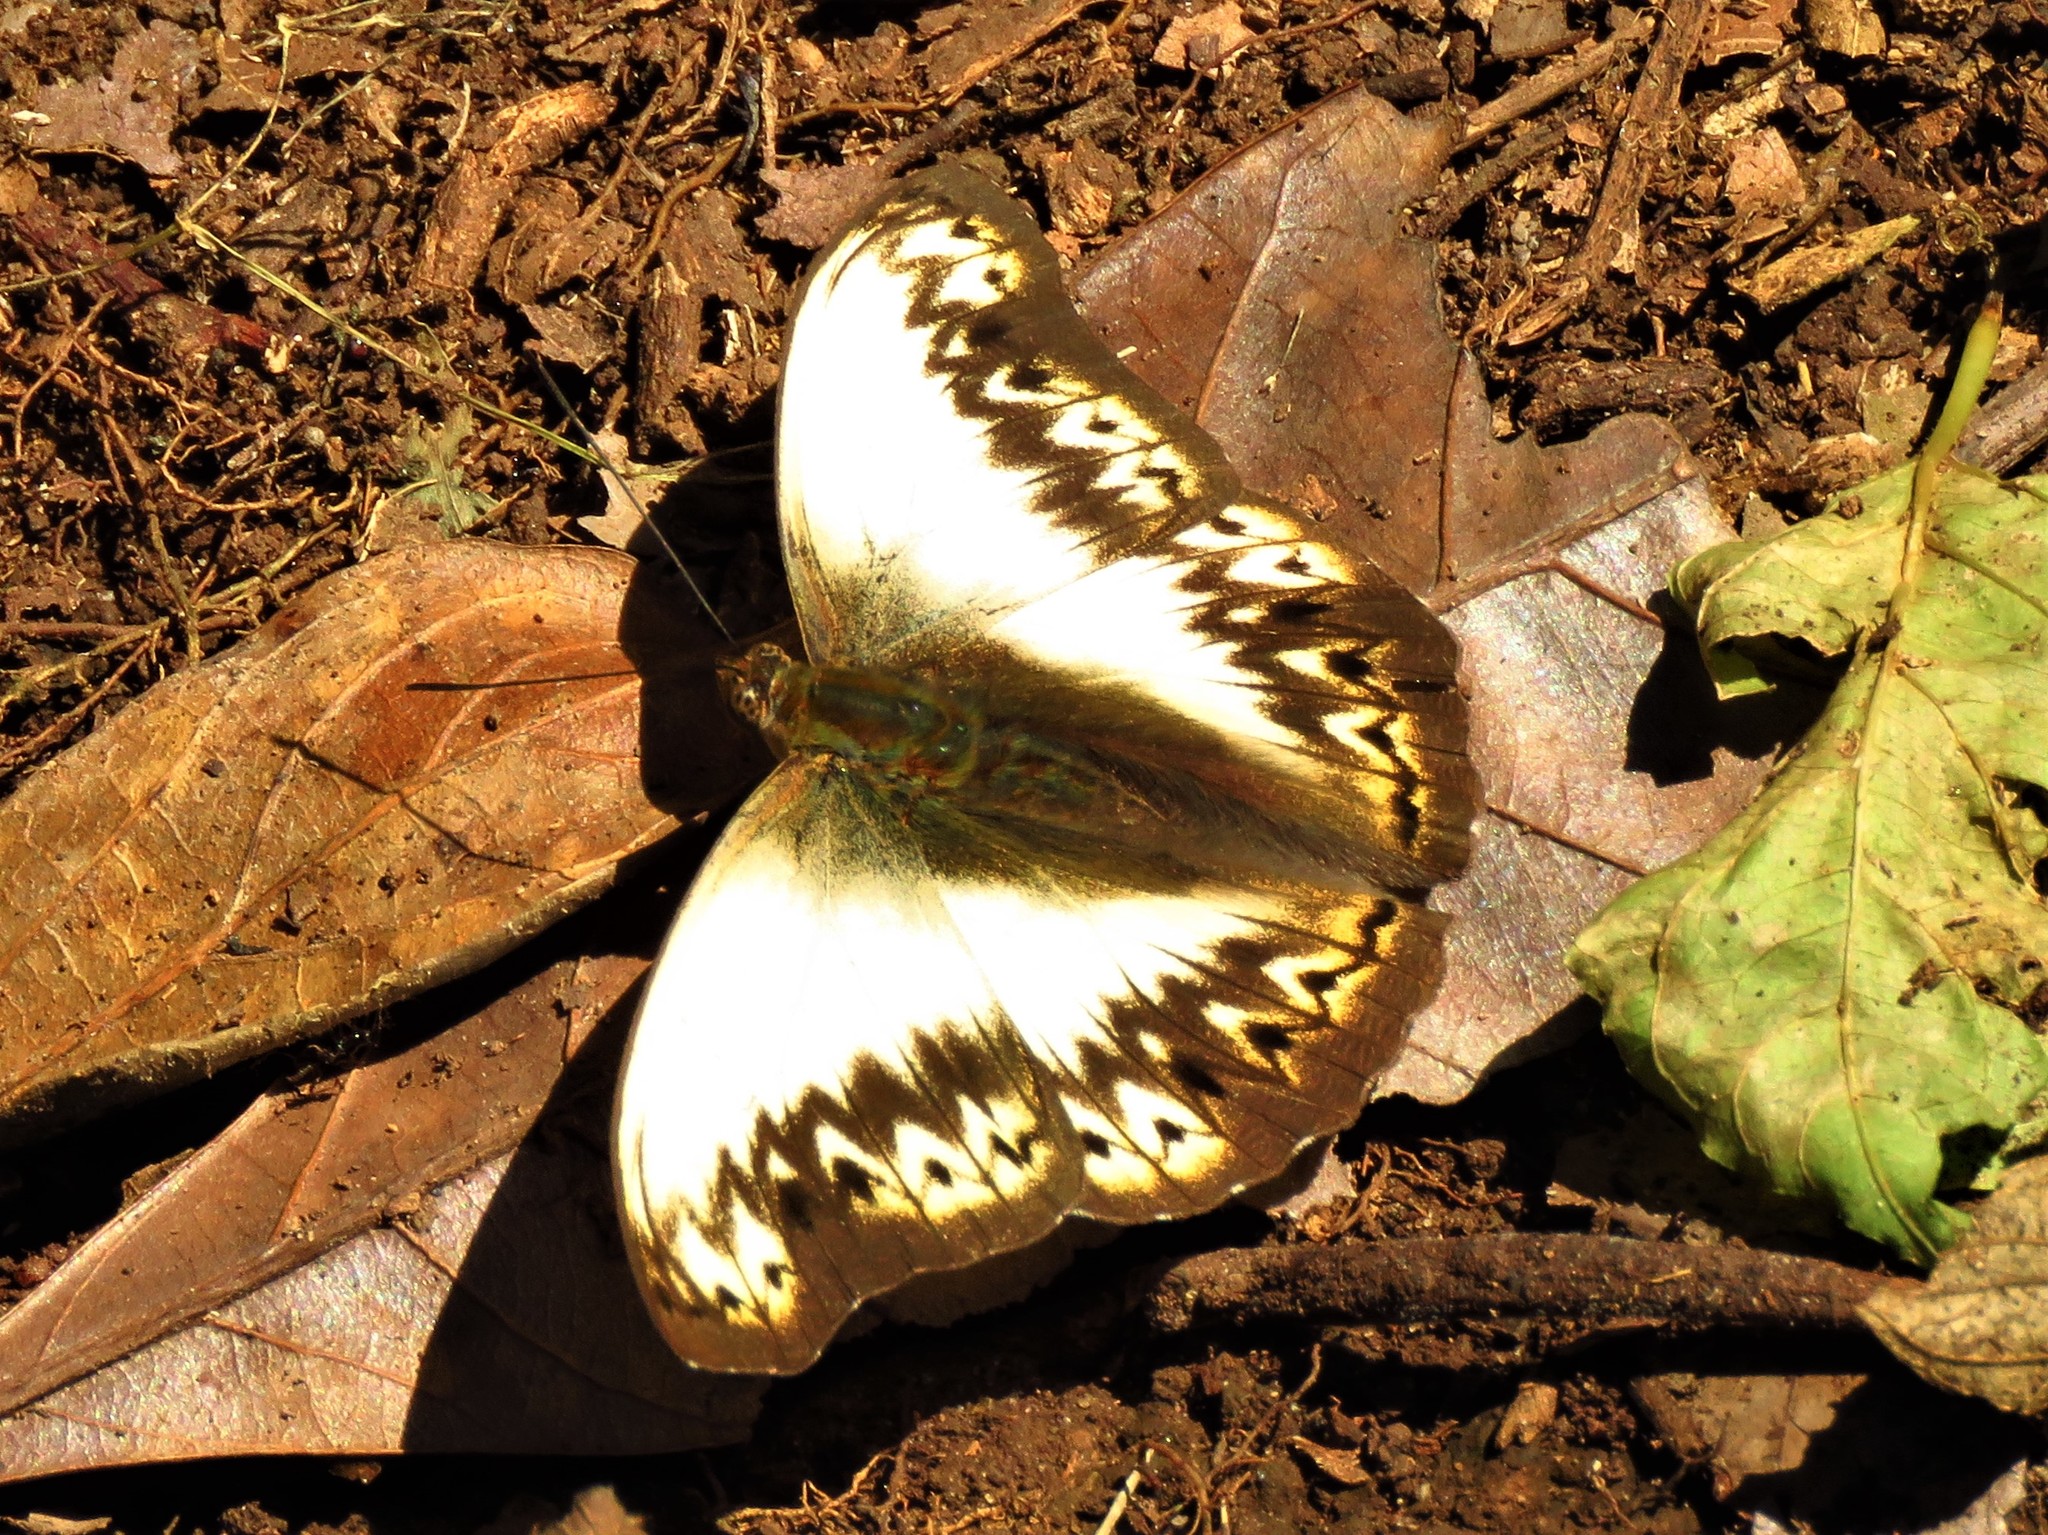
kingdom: Animalia
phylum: Arthropoda
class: Insecta
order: Lepidoptera
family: Nymphalidae
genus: Cymothoe
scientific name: Cymothoe herminia
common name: Herminia glider
